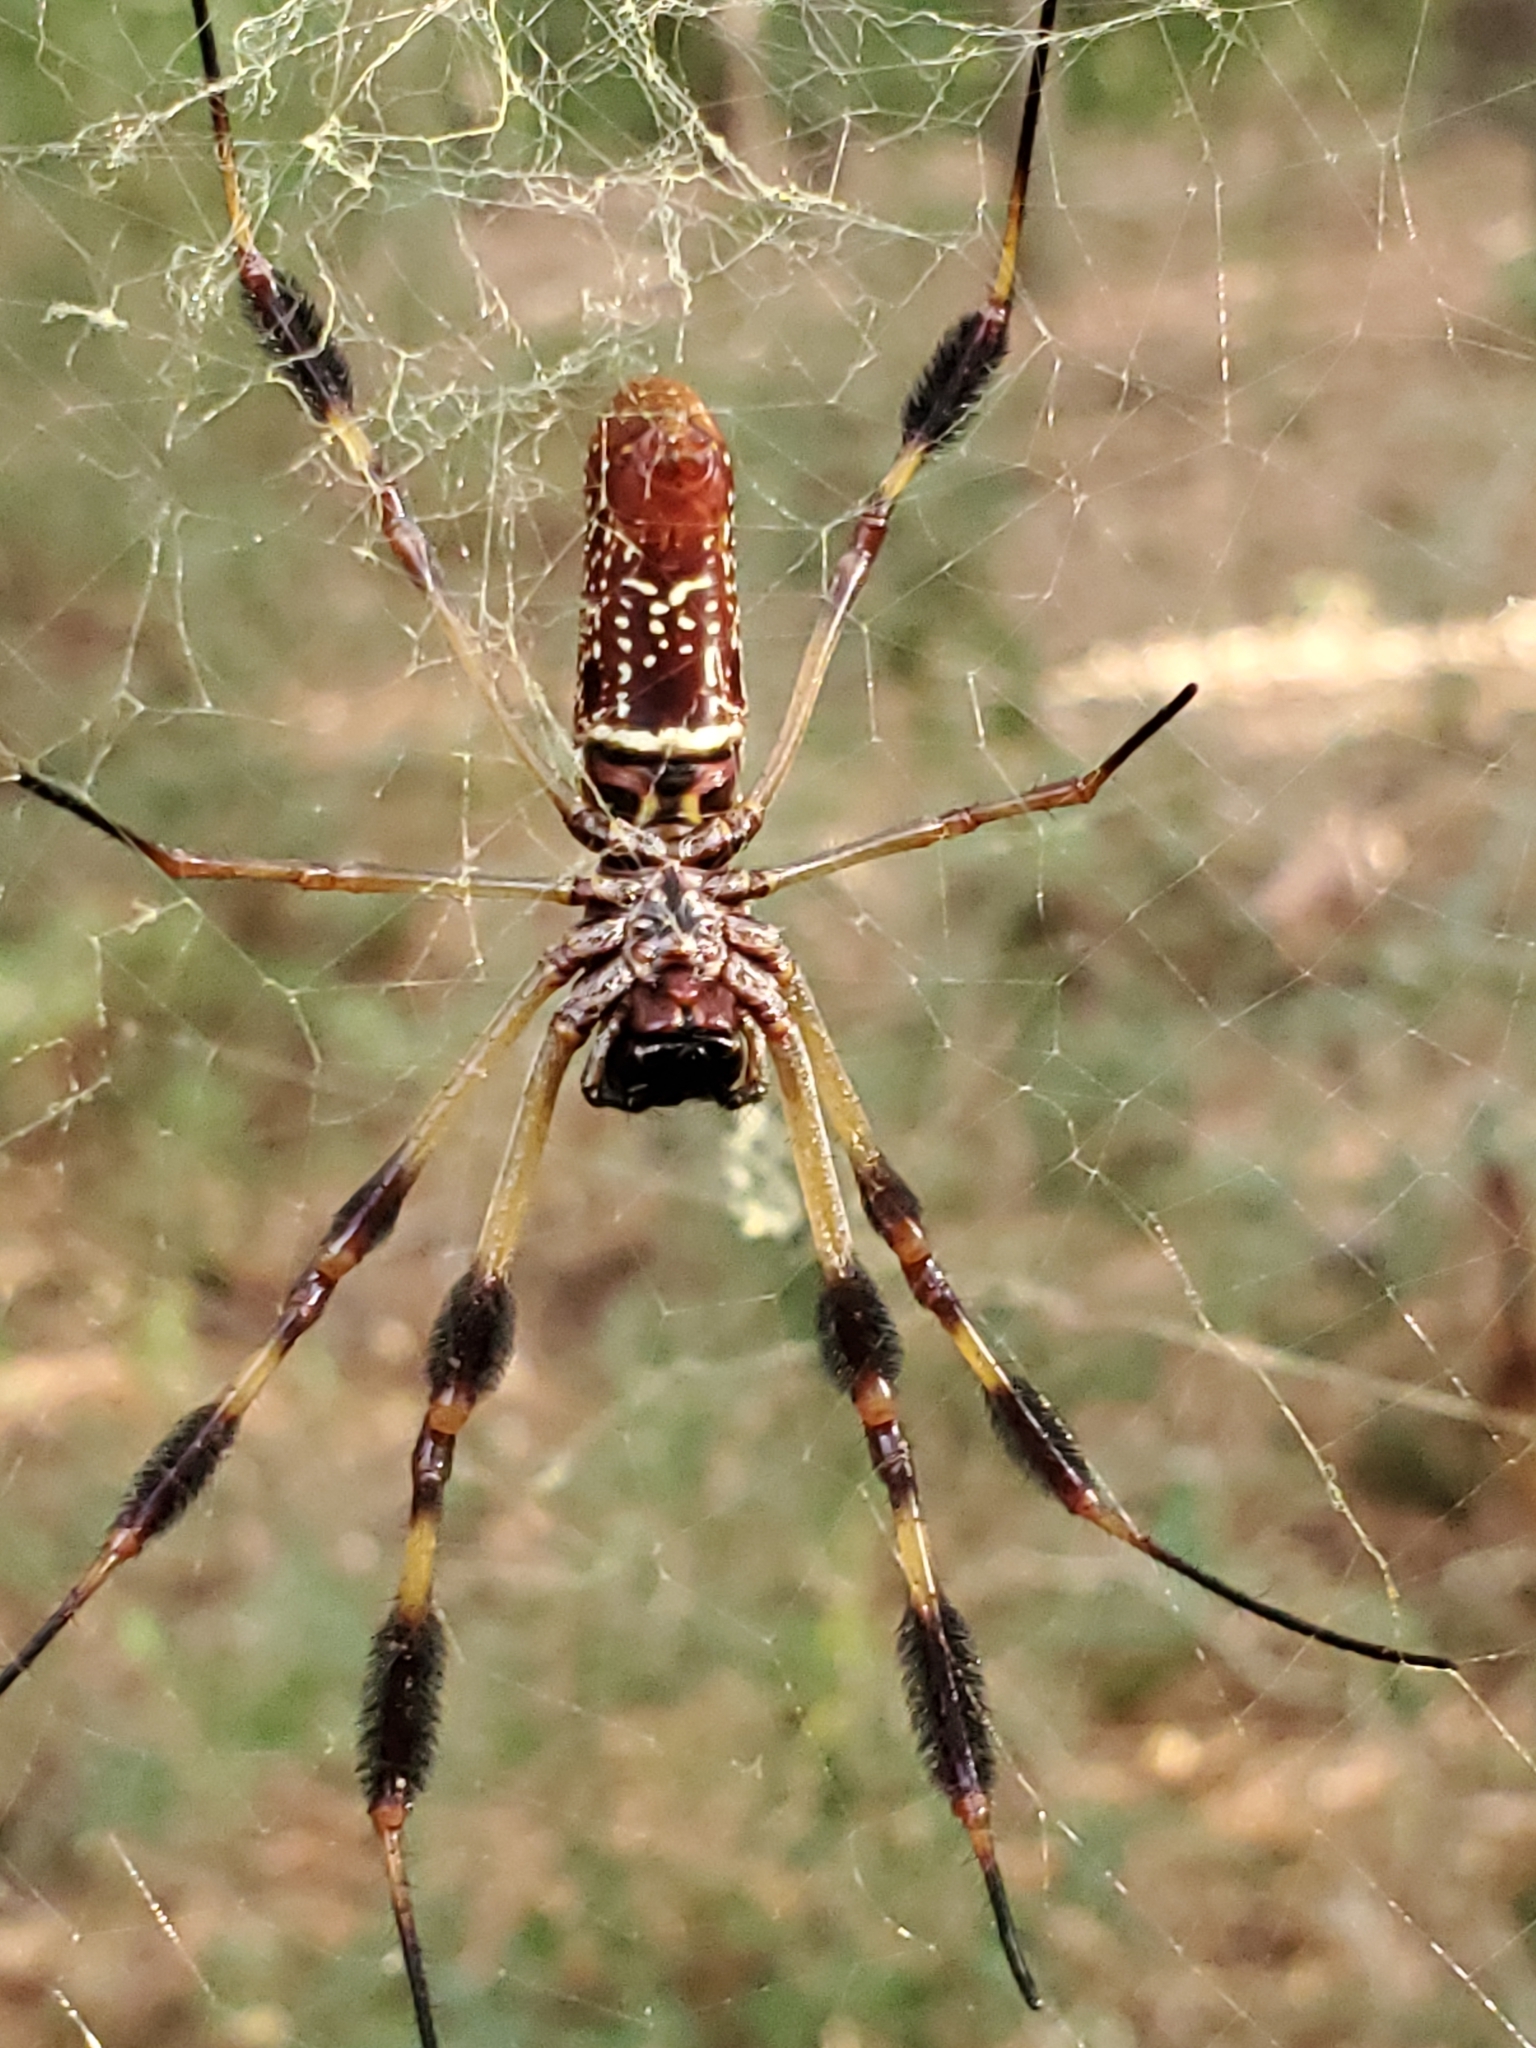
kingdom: Animalia
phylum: Arthropoda
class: Arachnida
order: Araneae
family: Araneidae
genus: Trichonephila
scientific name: Trichonephila clavipes
